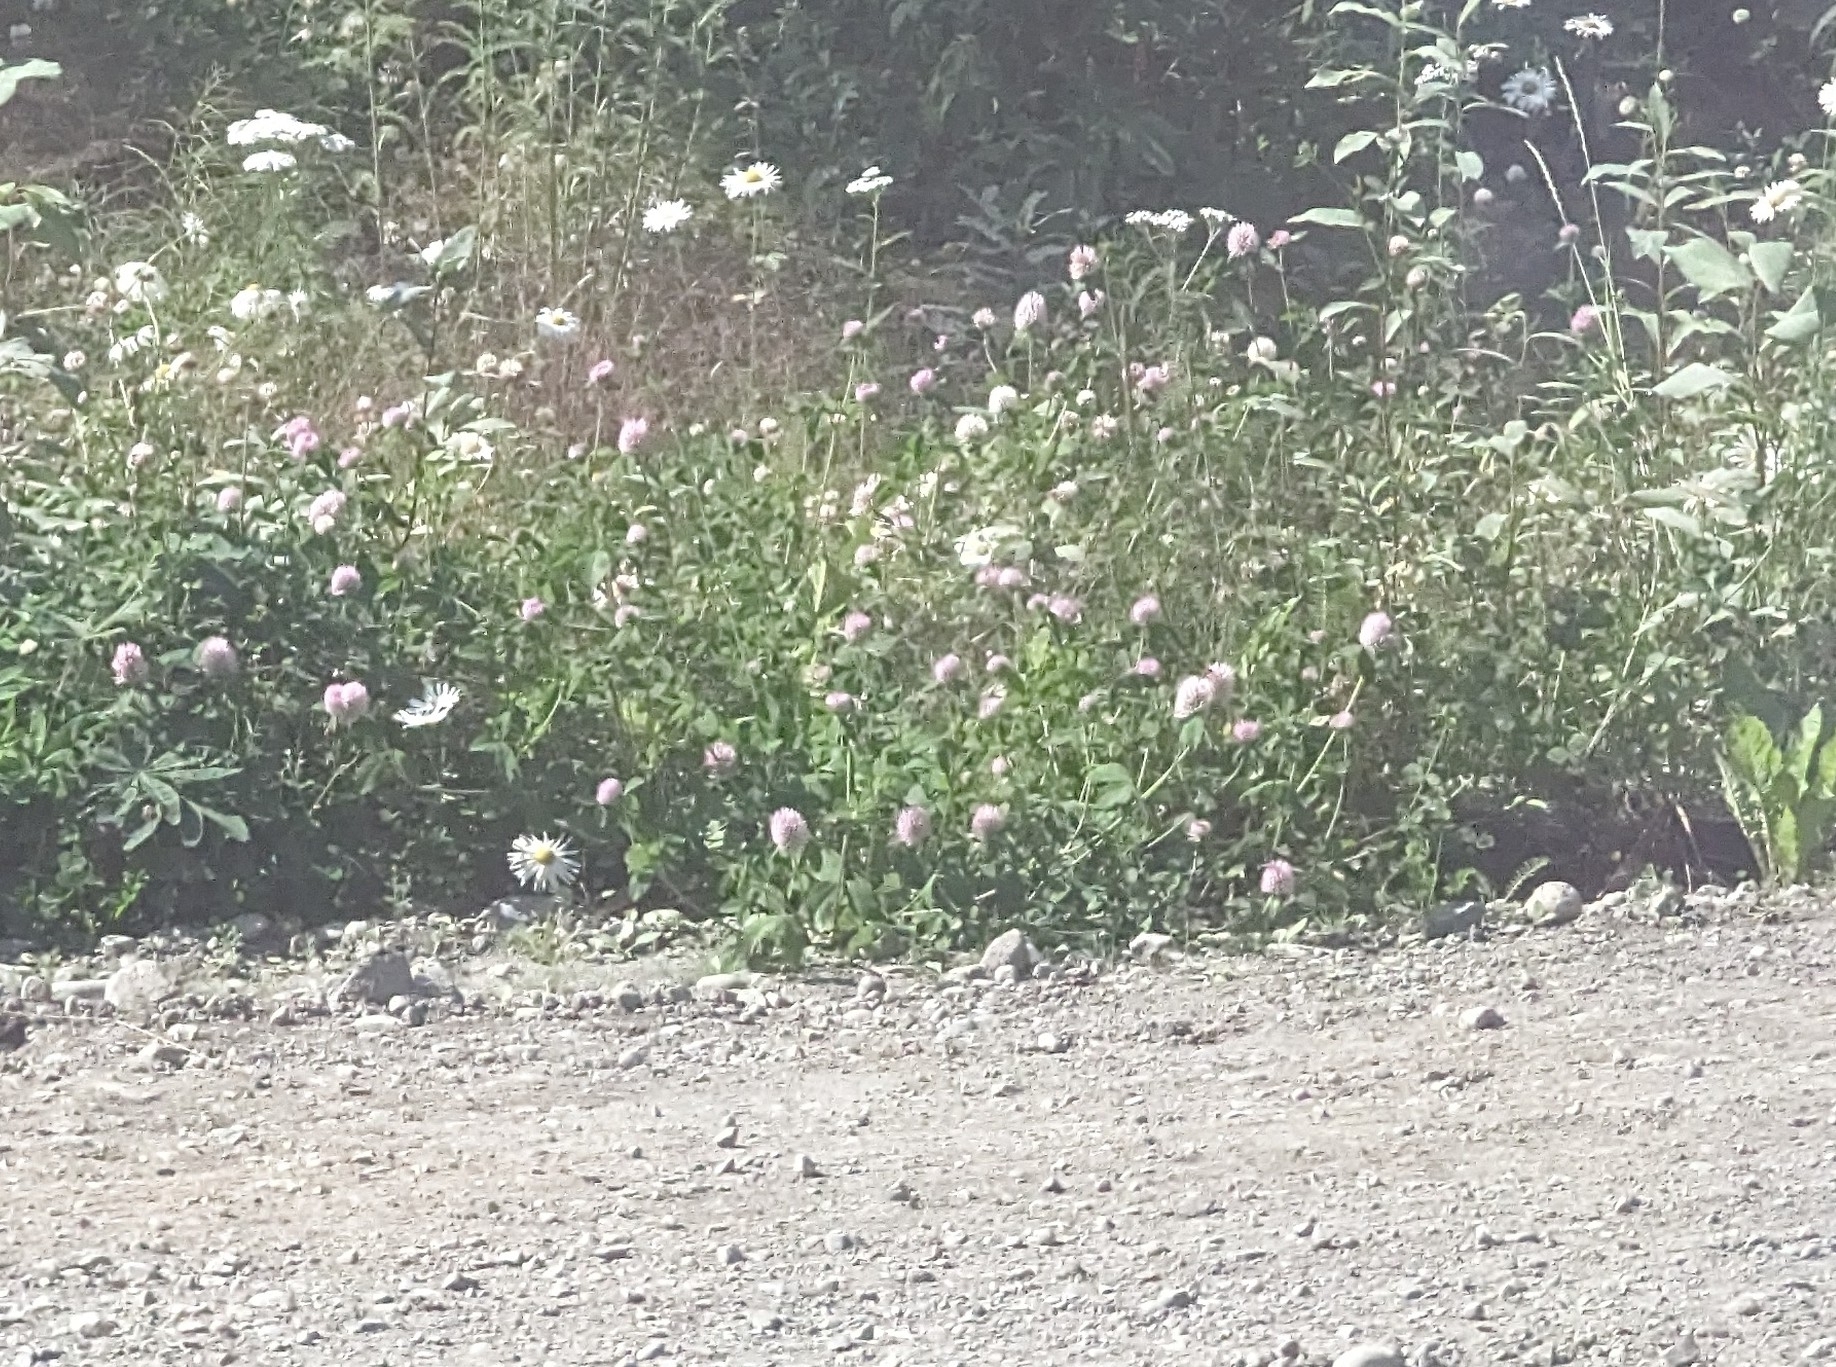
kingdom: Plantae
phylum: Tracheophyta
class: Magnoliopsida
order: Fabales
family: Fabaceae
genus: Trifolium
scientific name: Trifolium pratense
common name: Red clover
